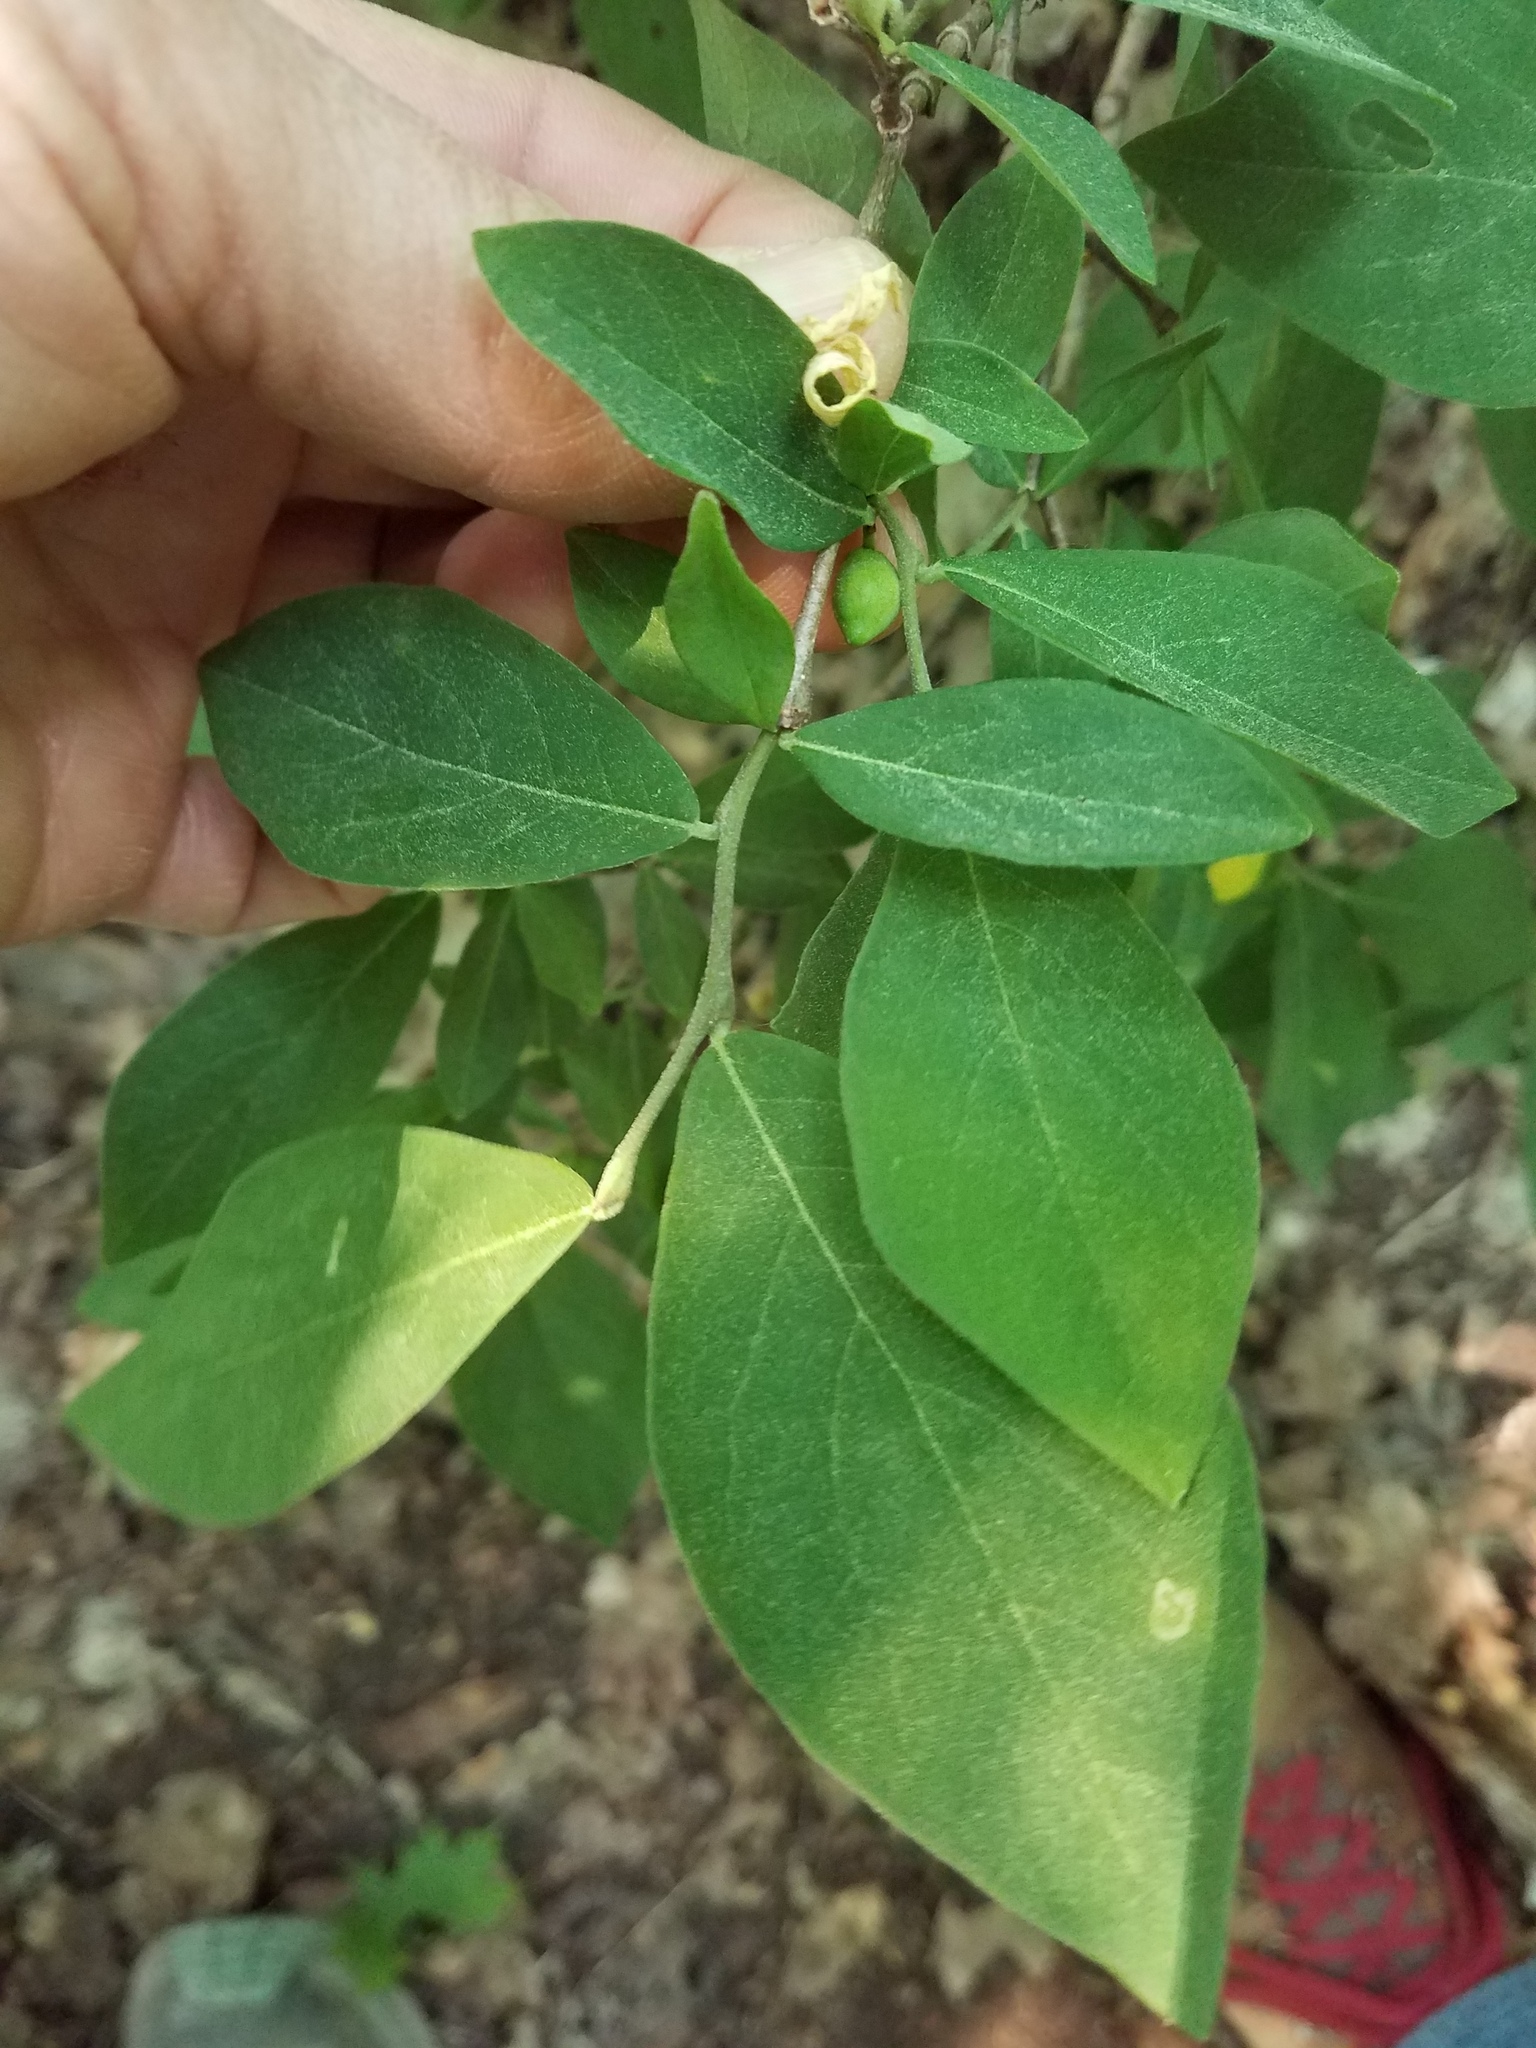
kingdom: Plantae
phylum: Tracheophyta
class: Magnoliopsida
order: Malvales
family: Thymelaeaceae
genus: Dirca
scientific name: Dirca palustris
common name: Leatherwood
